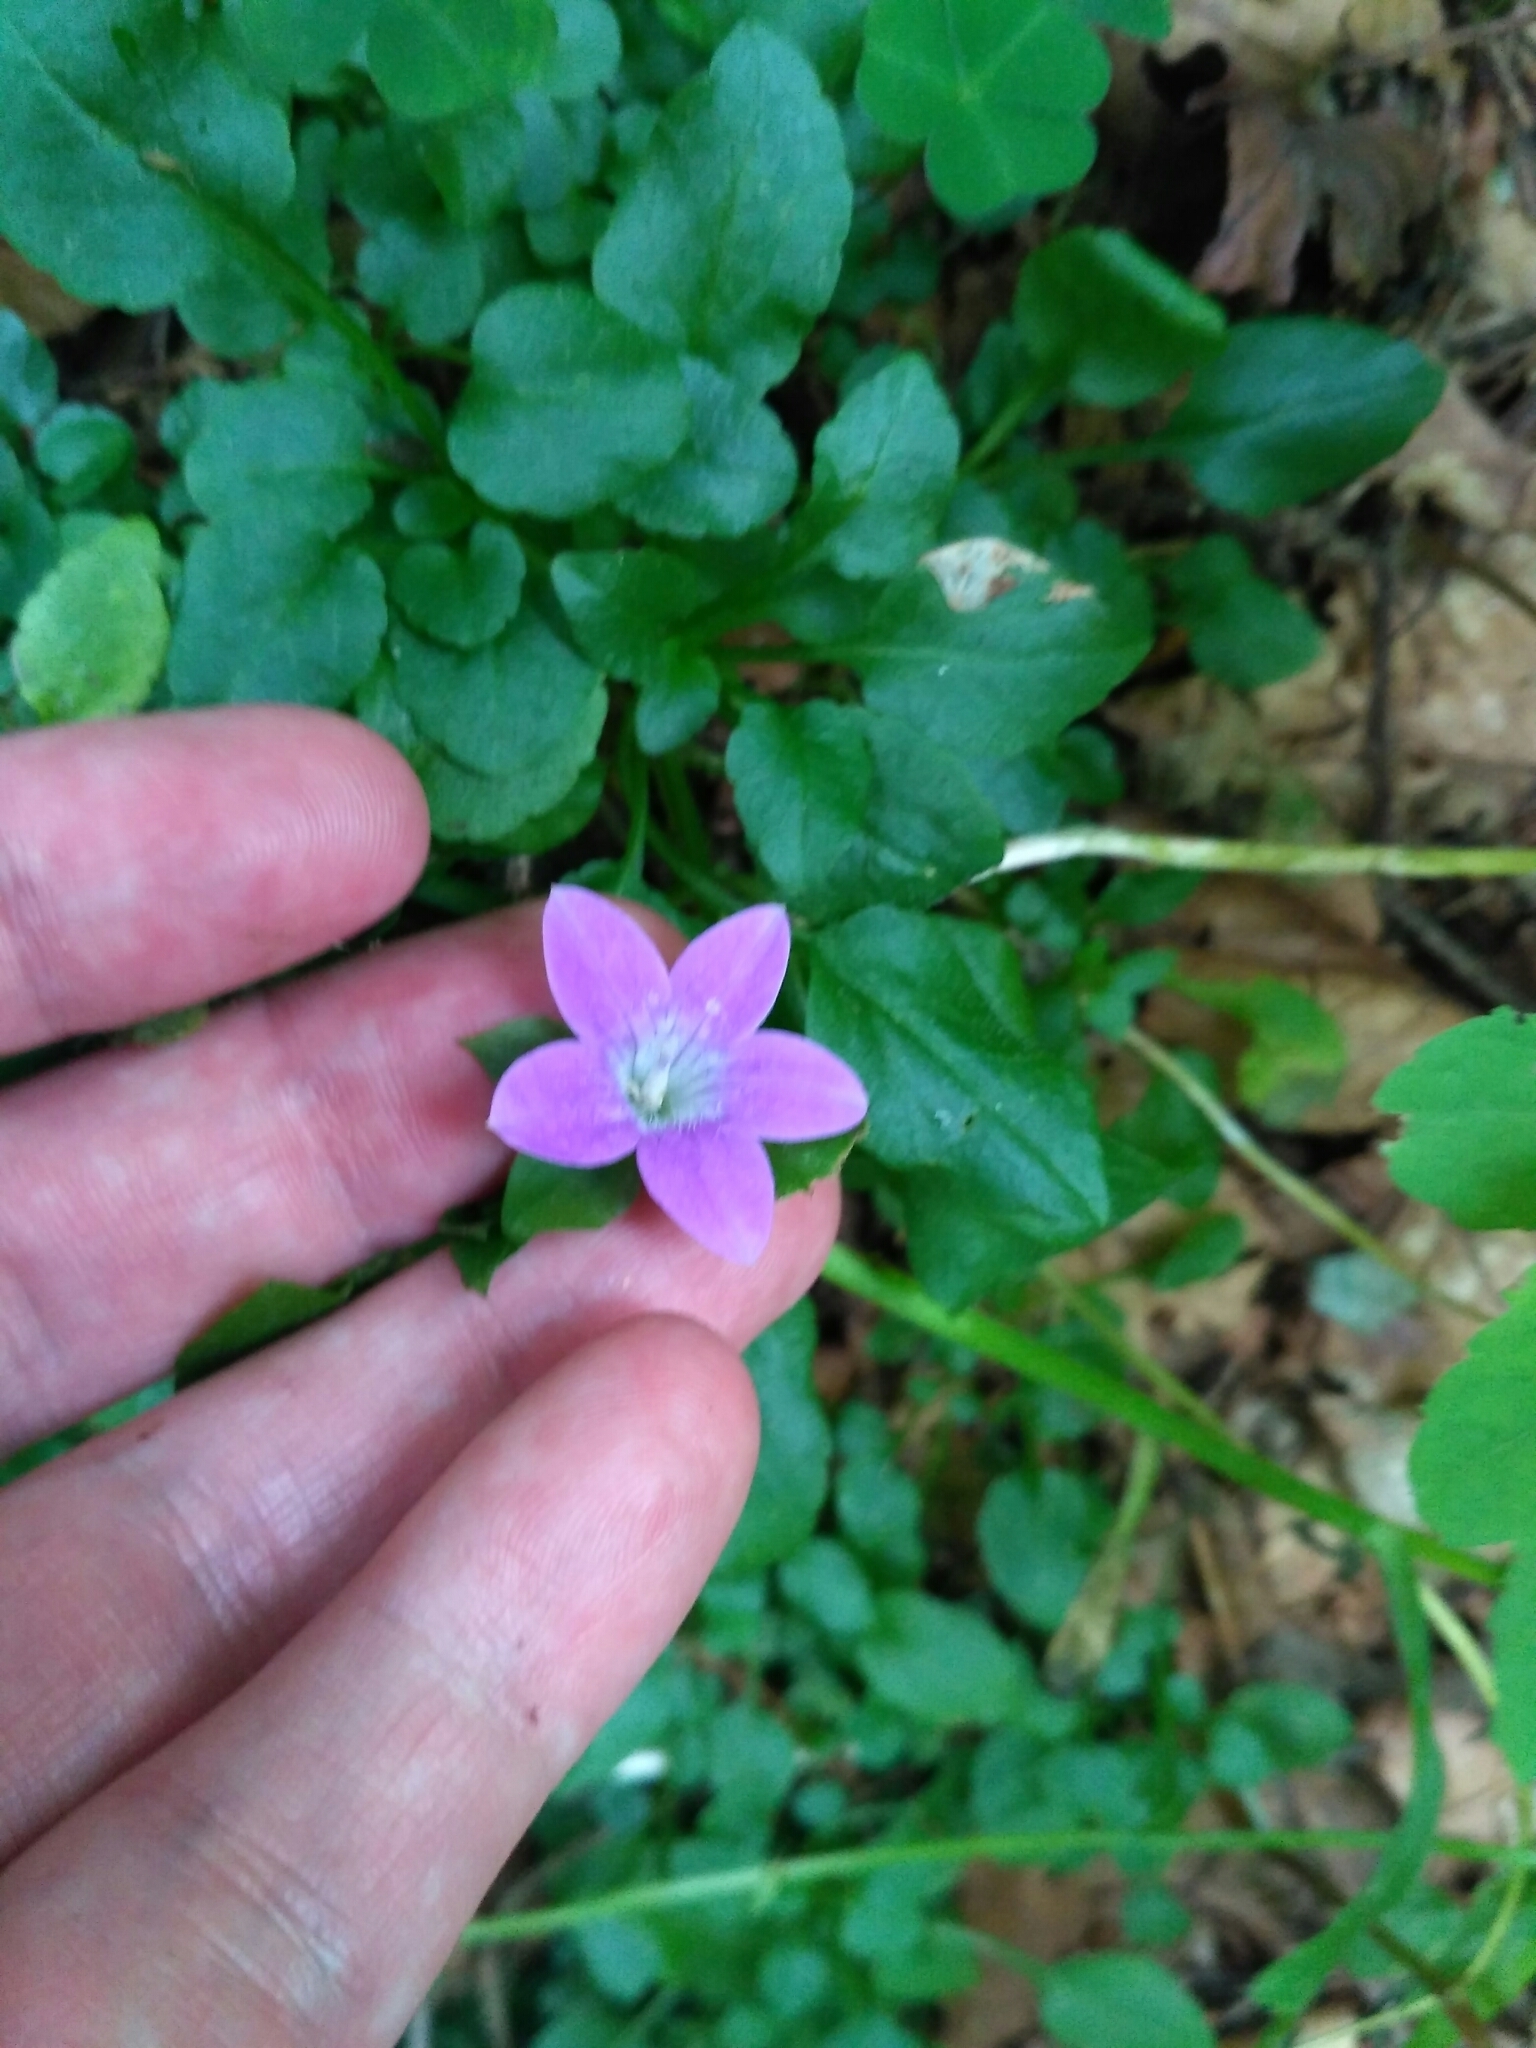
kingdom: Plantae
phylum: Tracheophyta
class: Magnoliopsida
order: Asterales
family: Campanulaceae
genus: Campanula
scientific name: Campanula patula
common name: Spreading bellflower
